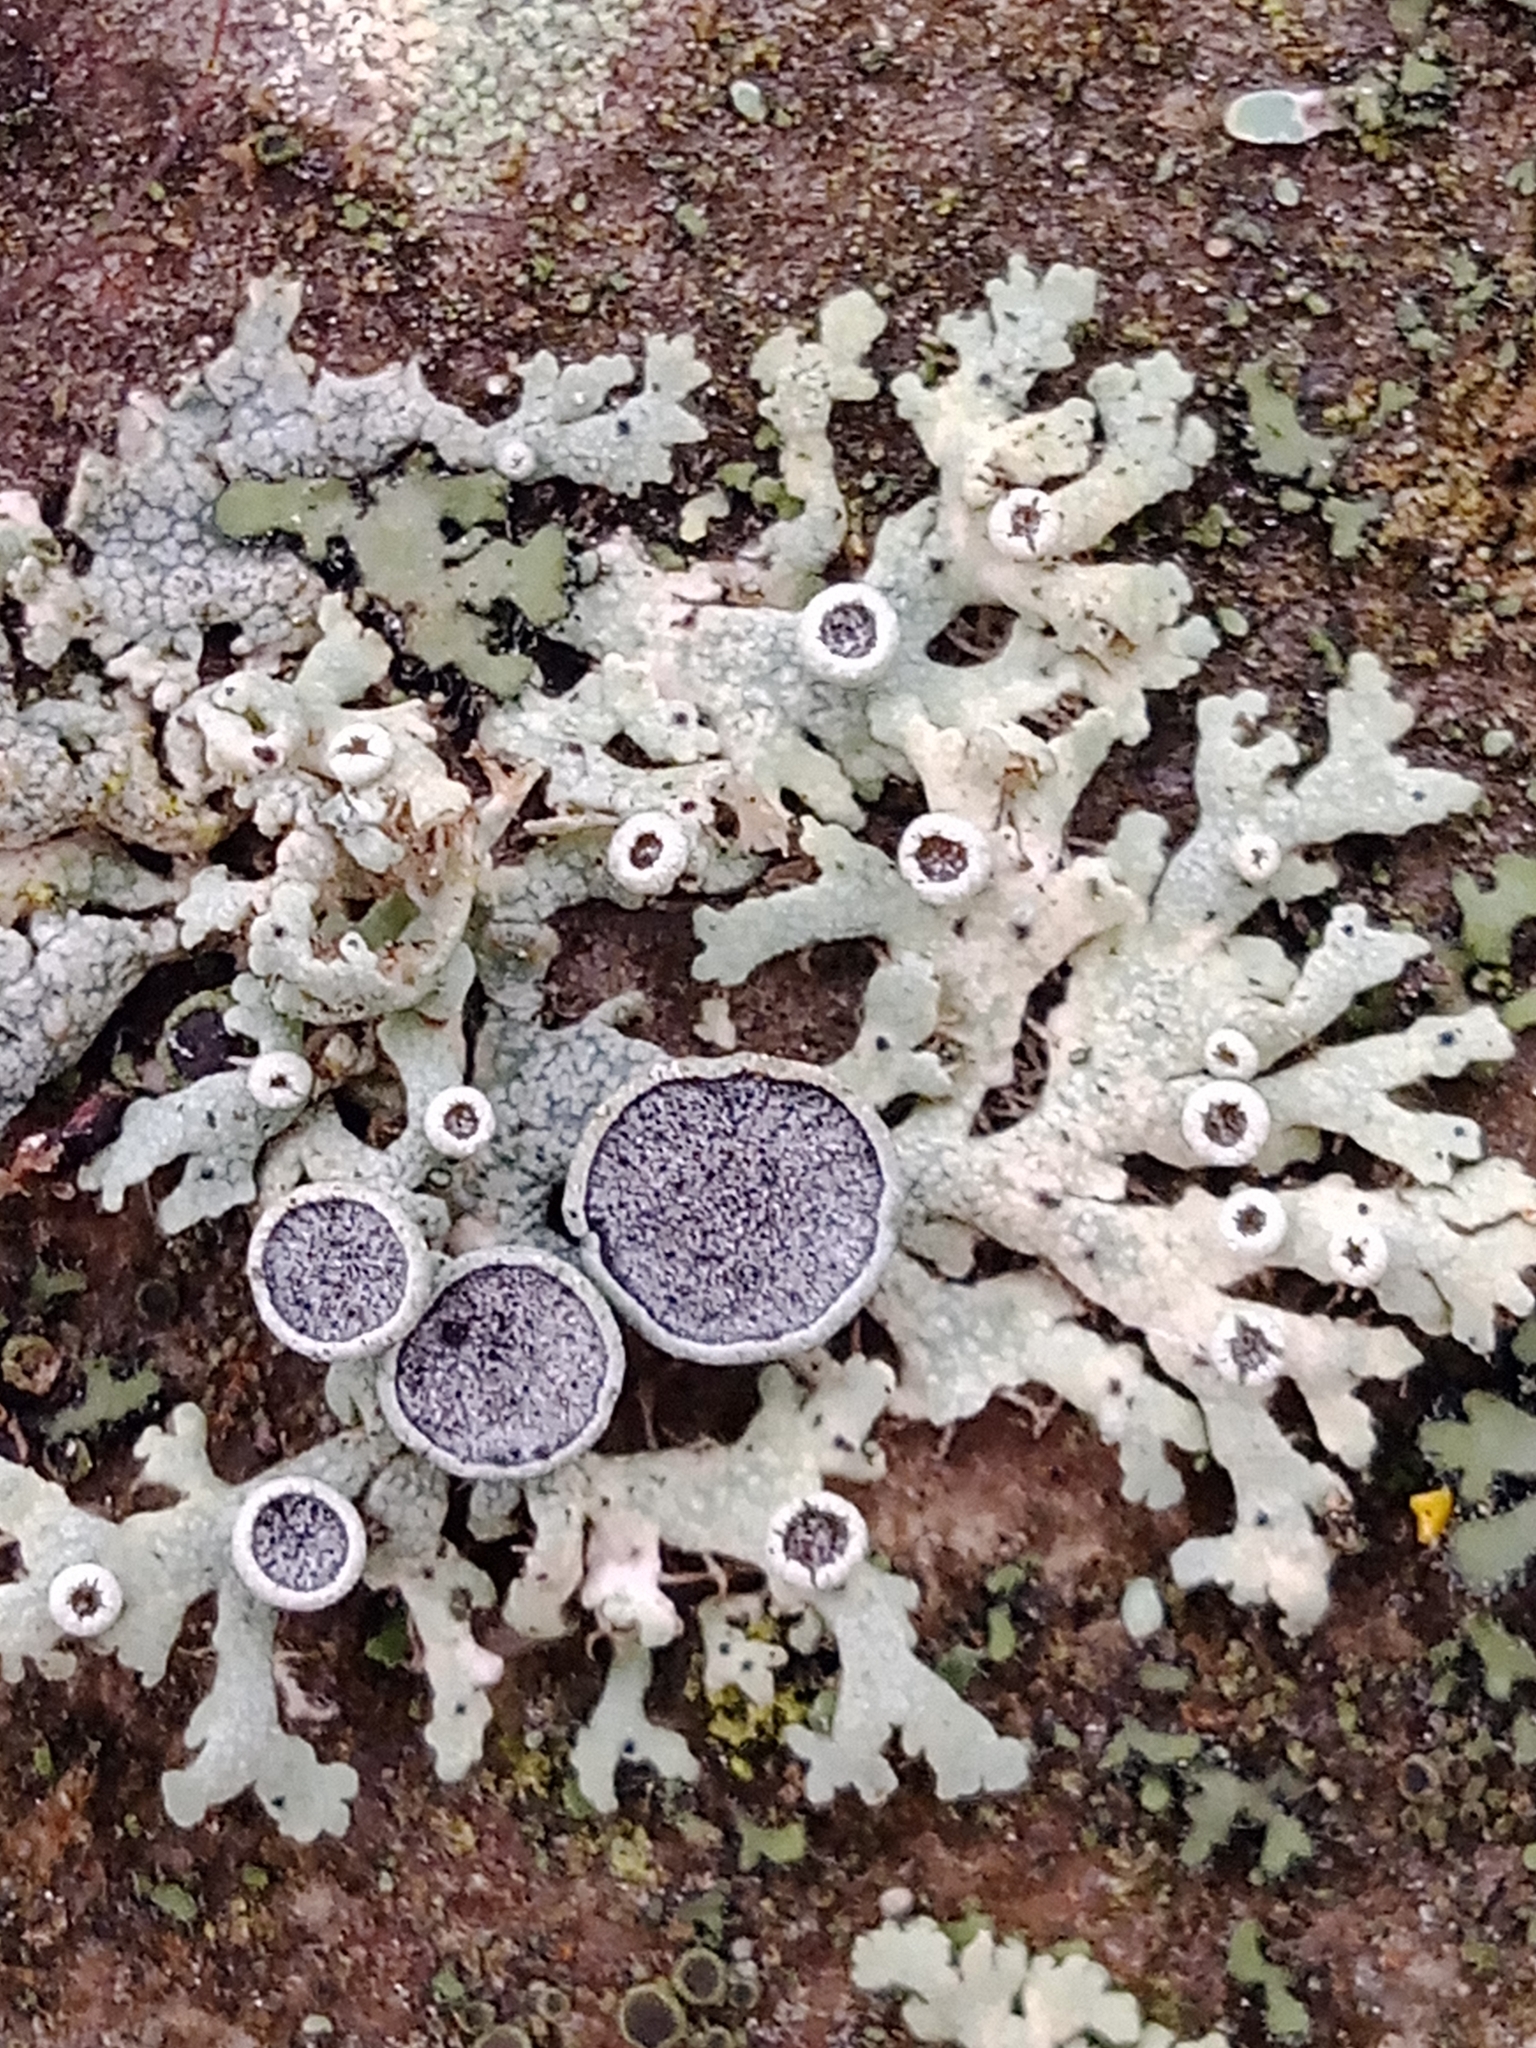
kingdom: Fungi
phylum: Ascomycota
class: Lecanoromycetes
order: Caliciales
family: Physciaceae
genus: Physcia
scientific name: Physcia aipolia
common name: Hoary rosette lichen
